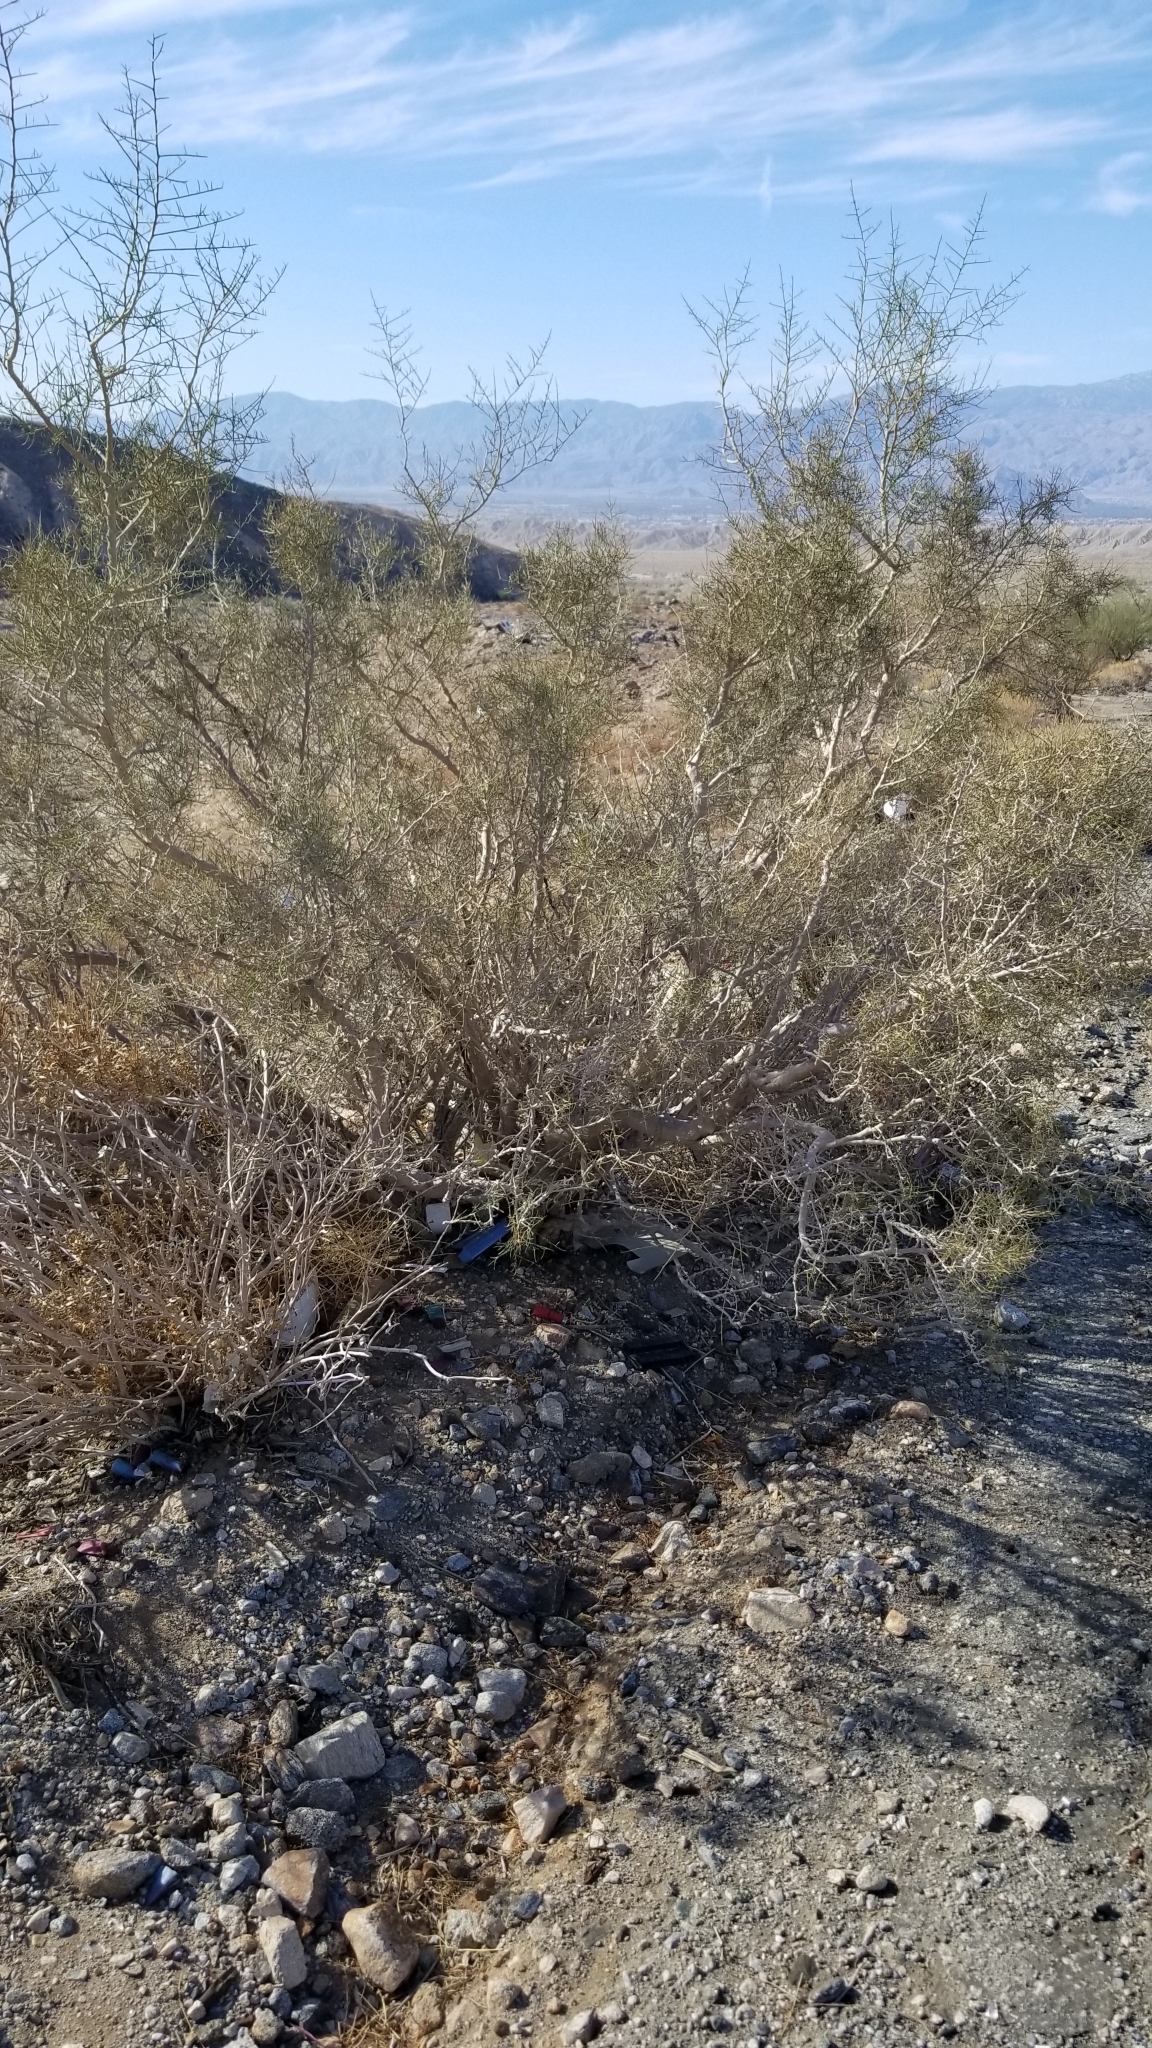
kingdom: Plantae
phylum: Tracheophyta
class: Magnoliopsida
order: Fabales
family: Fabaceae
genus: Psorothamnus
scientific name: Psorothamnus spinosus
